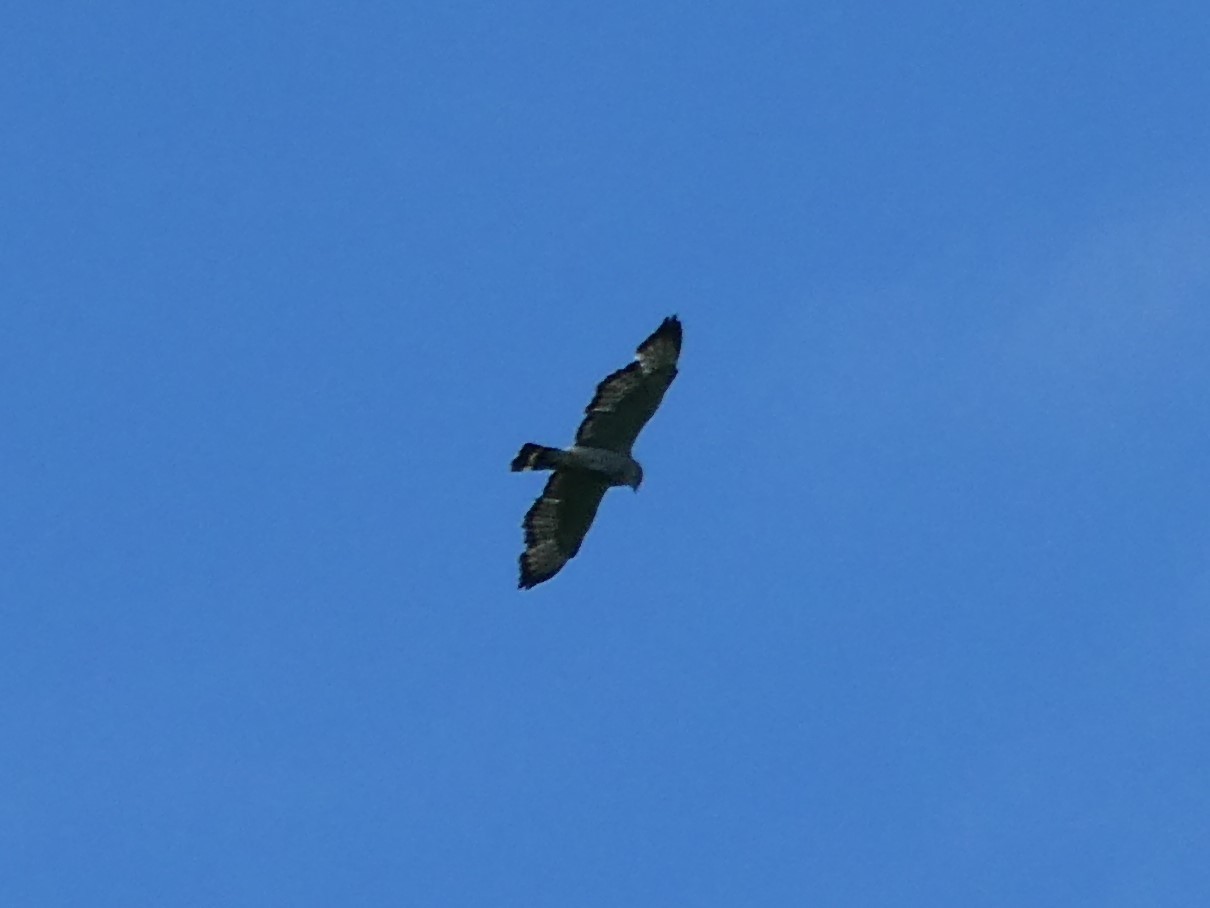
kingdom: Animalia
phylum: Chordata
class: Aves
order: Accipitriformes
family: Accipitridae
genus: Buteo
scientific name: Buteo platypterus
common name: Broad-winged hawk
